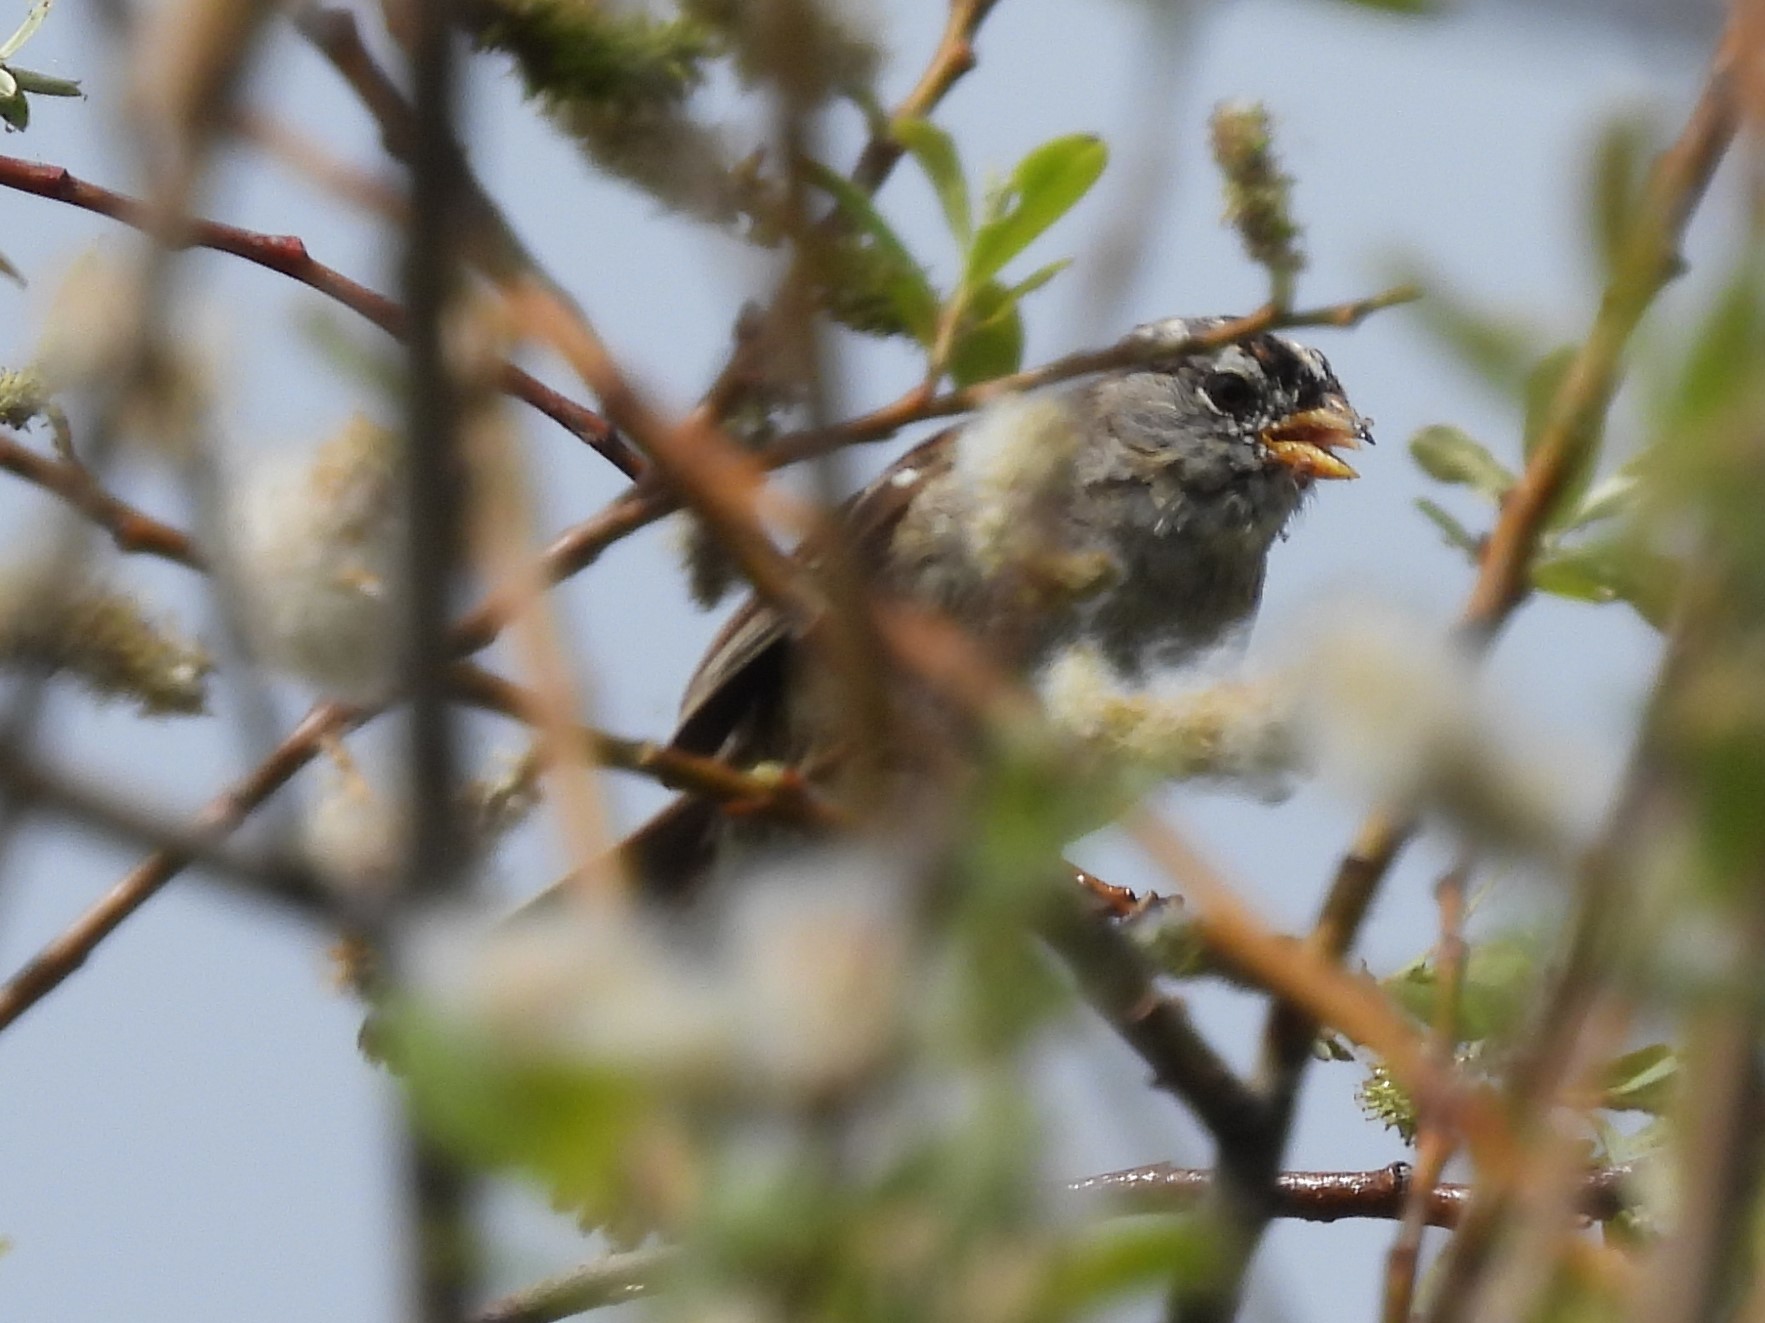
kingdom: Animalia
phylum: Chordata
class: Aves
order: Passeriformes
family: Passerellidae
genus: Zonotrichia
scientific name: Zonotrichia leucophrys
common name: White-crowned sparrow
